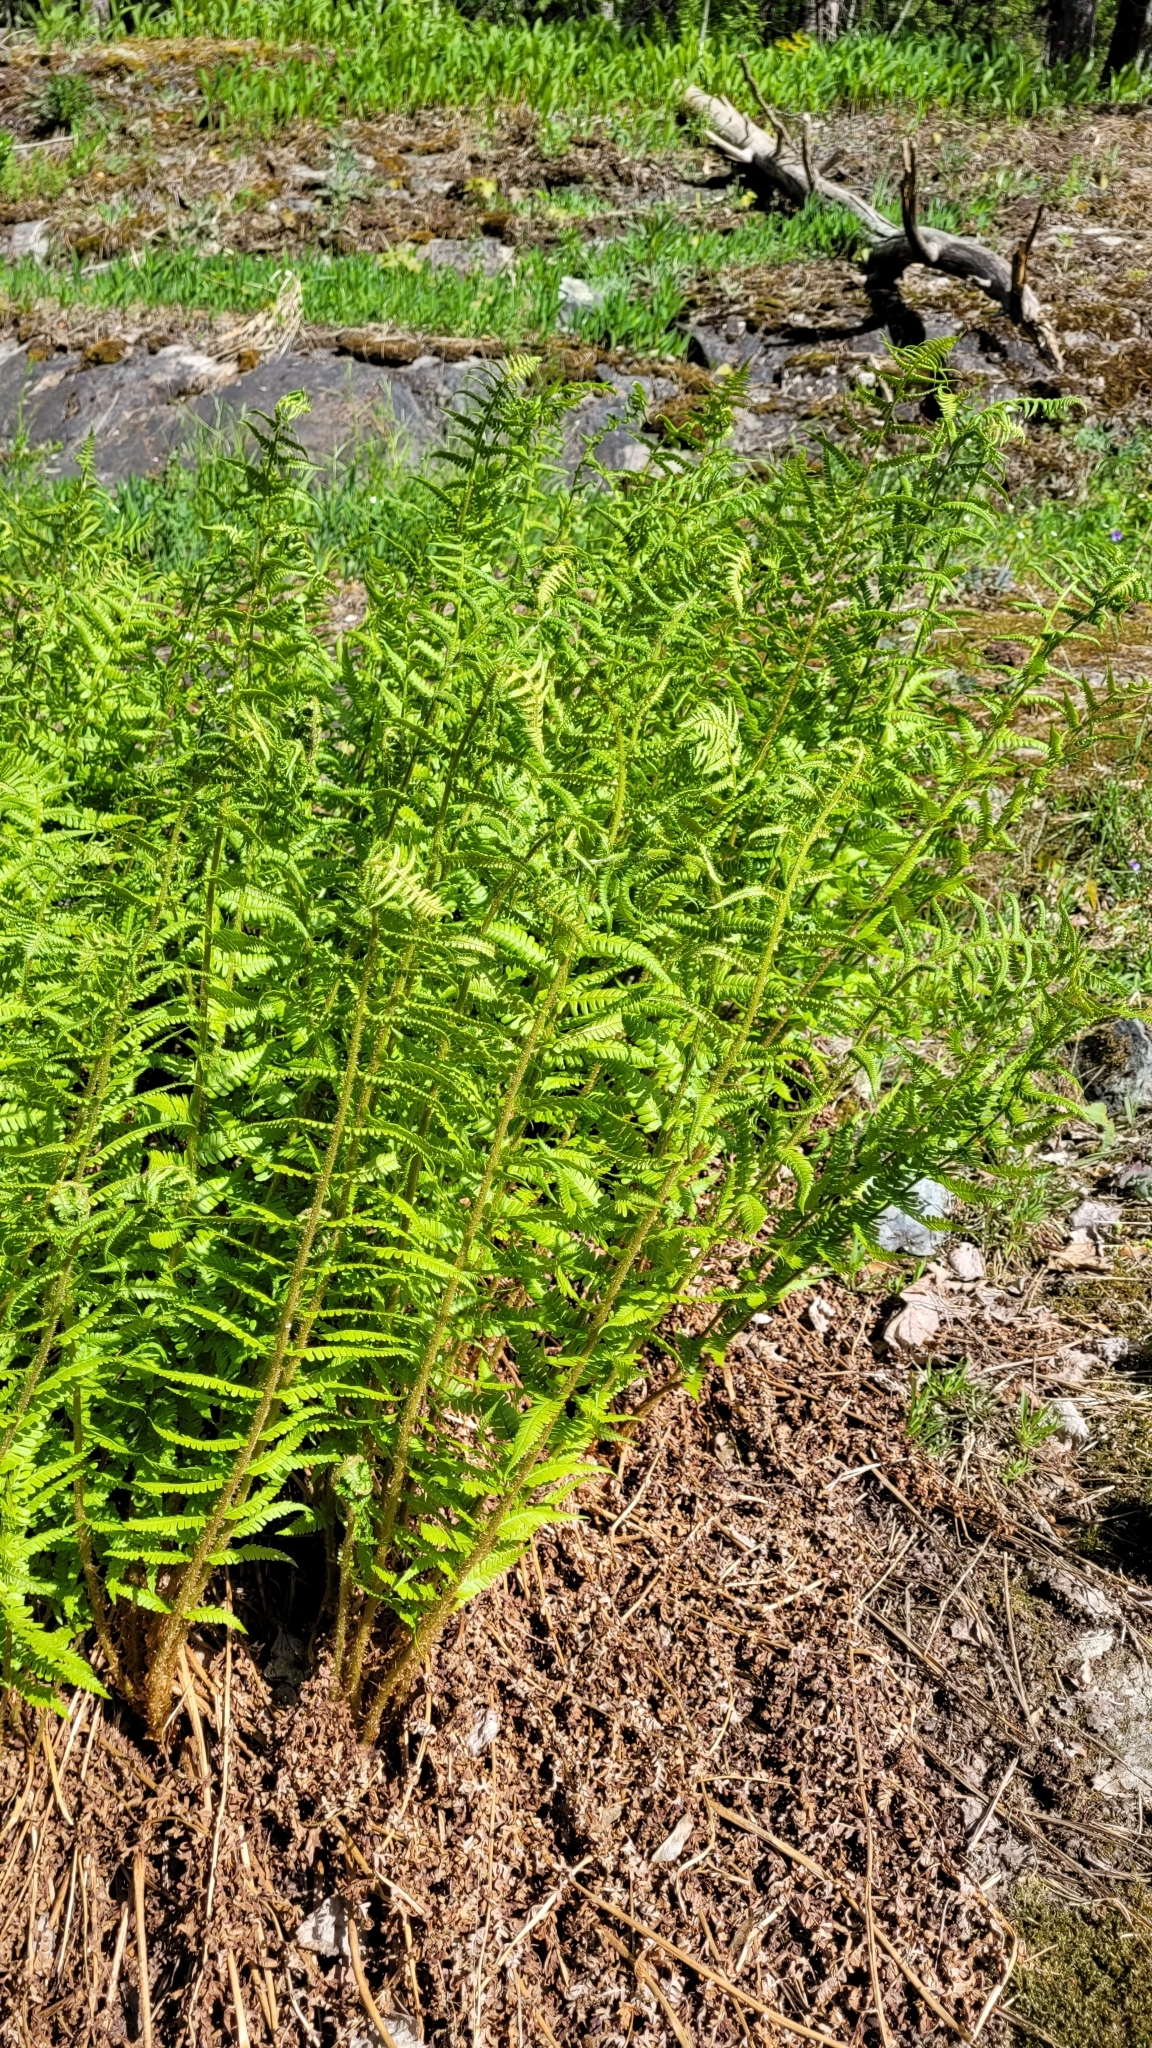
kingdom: Plantae
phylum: Tracheophyta
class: Polypodiopsida
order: Polypodiales
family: Dryopteridaceae
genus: Dryopteris
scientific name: Dryopteris filix-mas
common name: Male fern
